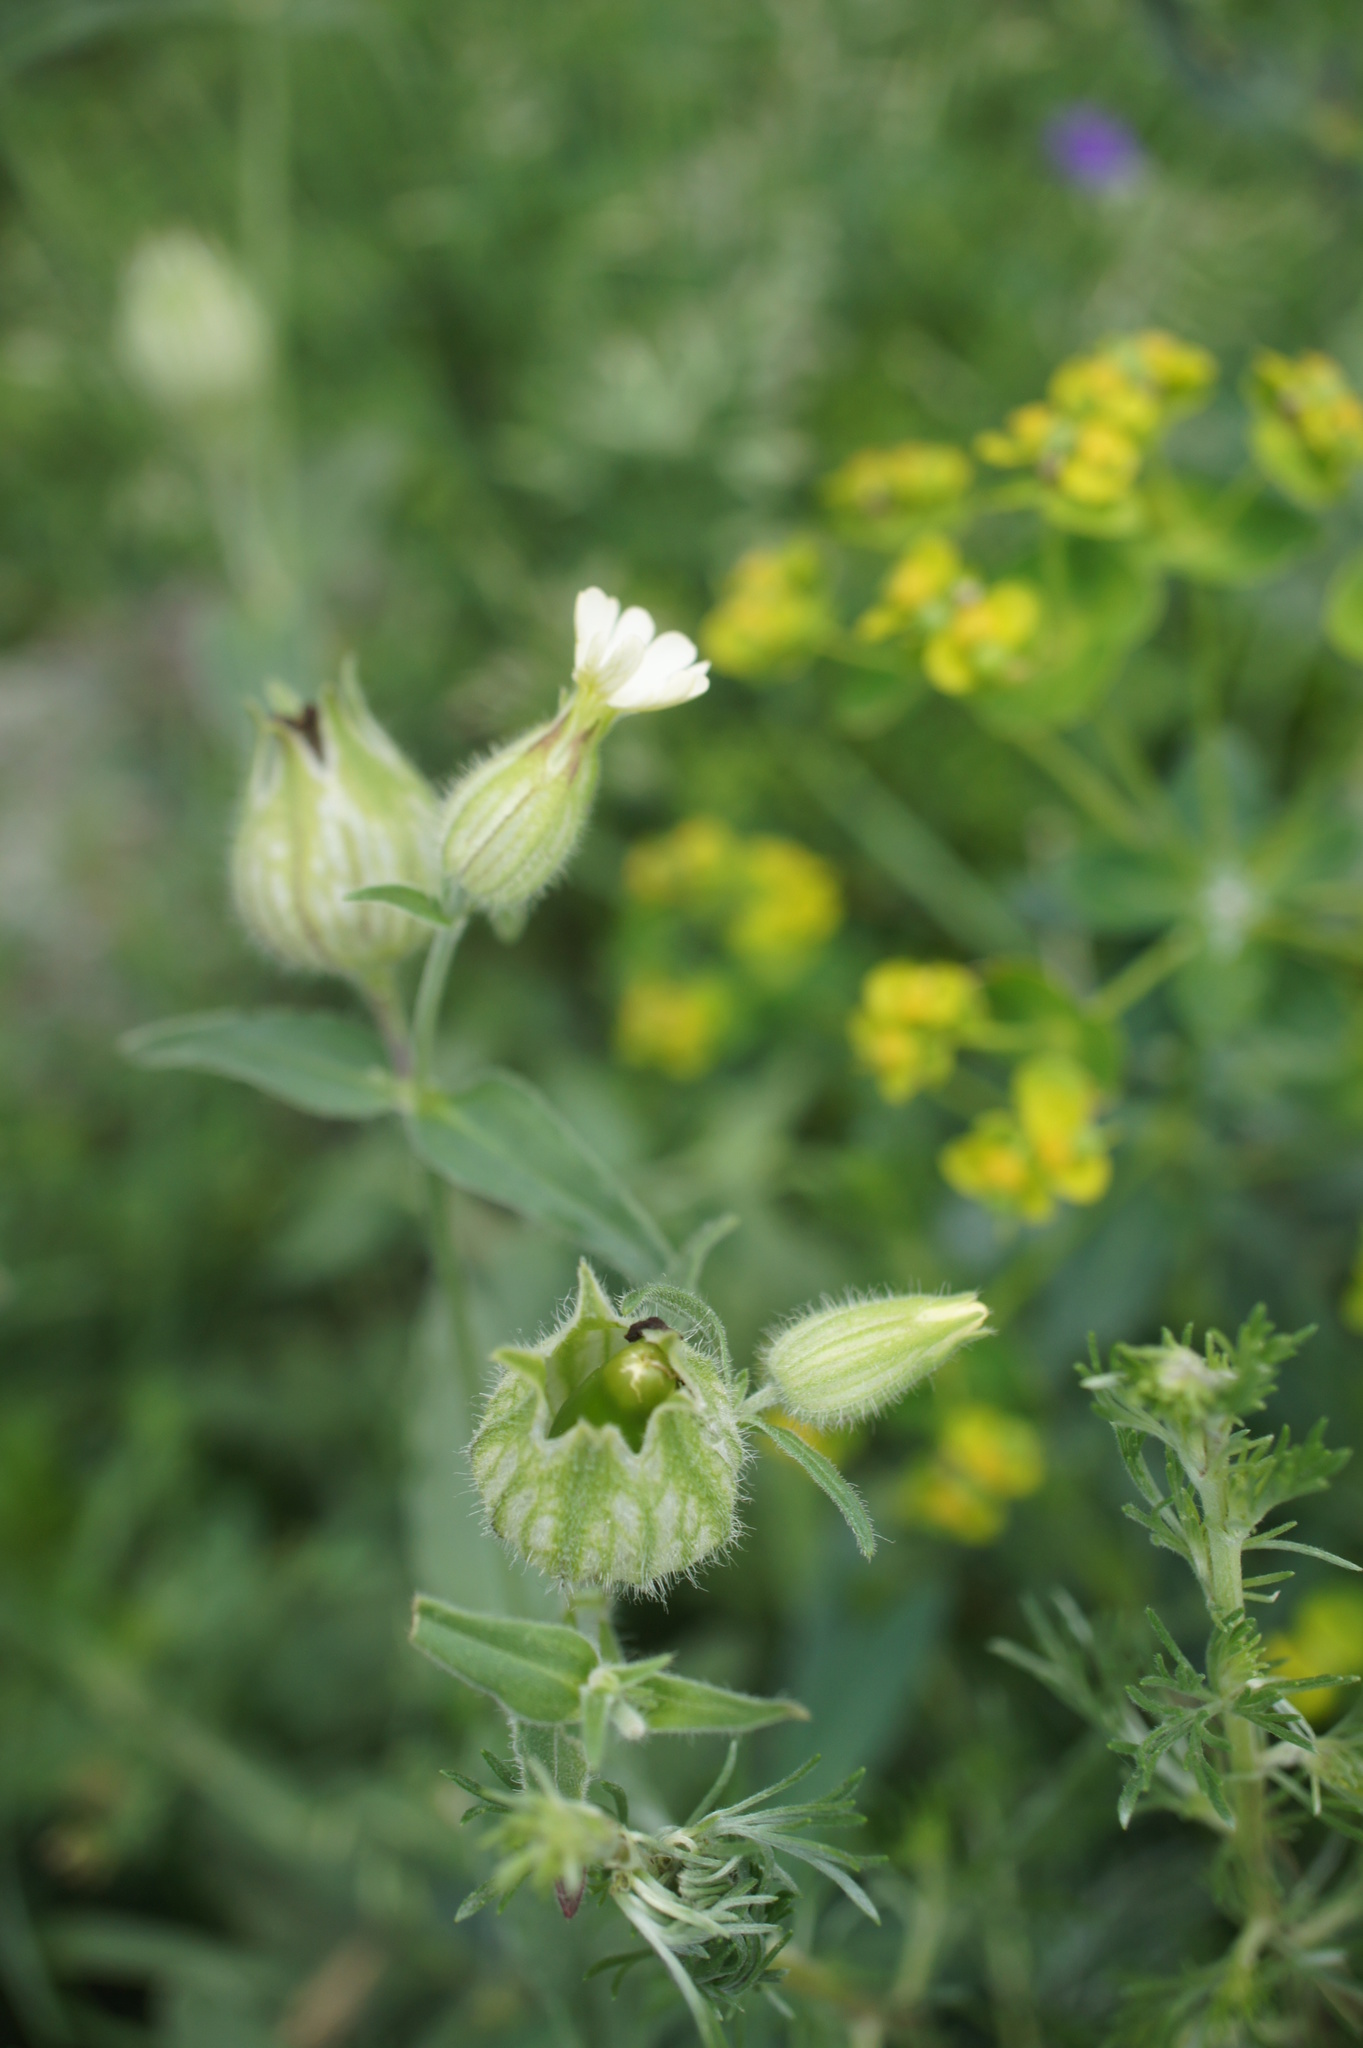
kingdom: Plantae
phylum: Tracheophyta
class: Magnoliopsida
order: Caryophyllales
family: Caryophyllaceae
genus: Silene
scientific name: Silene latifolia
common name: White campion
